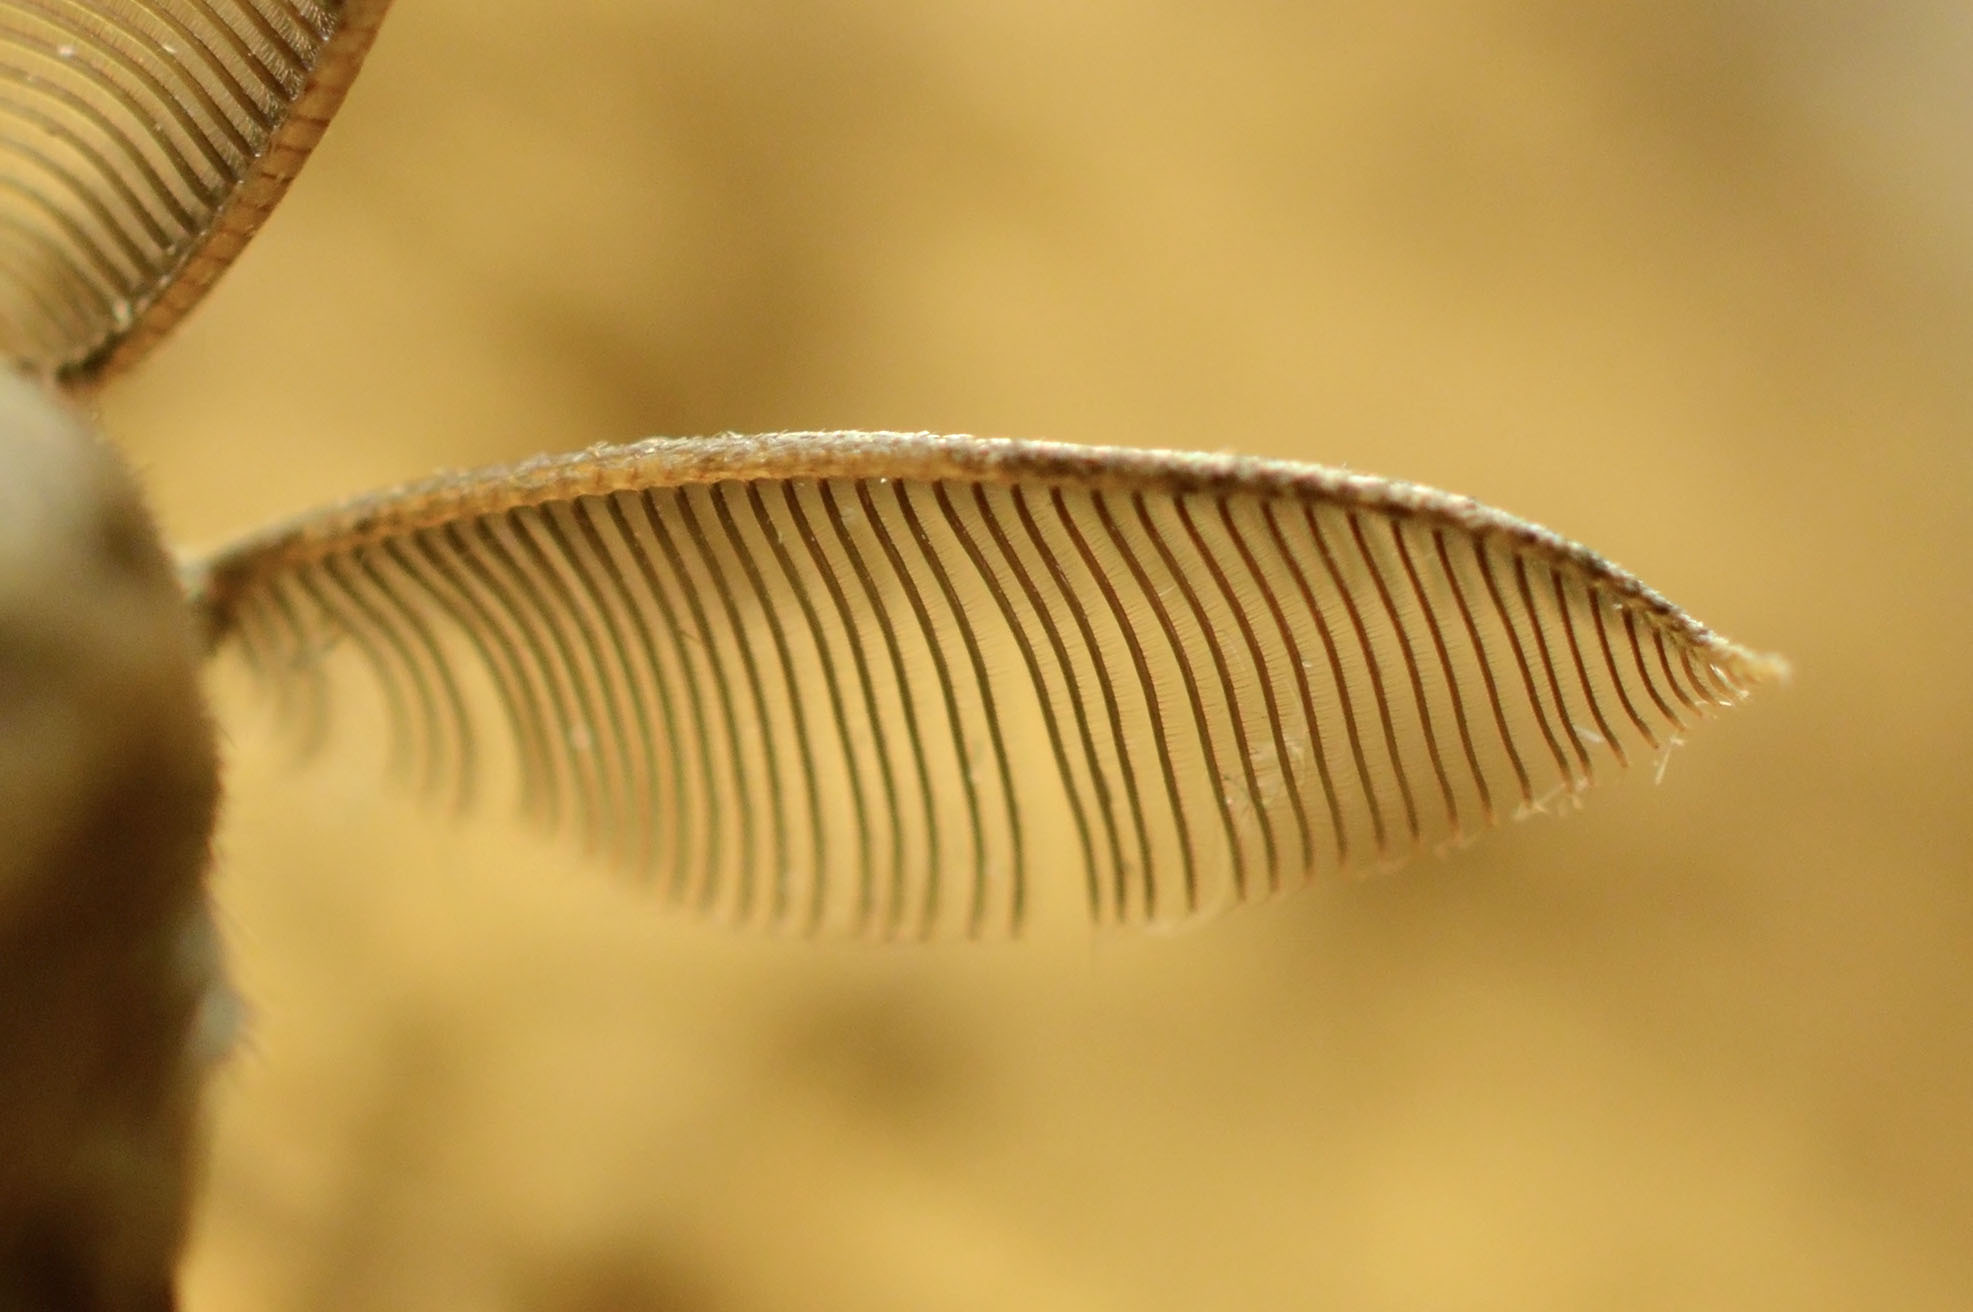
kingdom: Animalia
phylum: Arthropoda
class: Insecta
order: Lepidoptera
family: Erebidae
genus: Lymantria
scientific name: Lymantria dispar
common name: Gypsy moth
